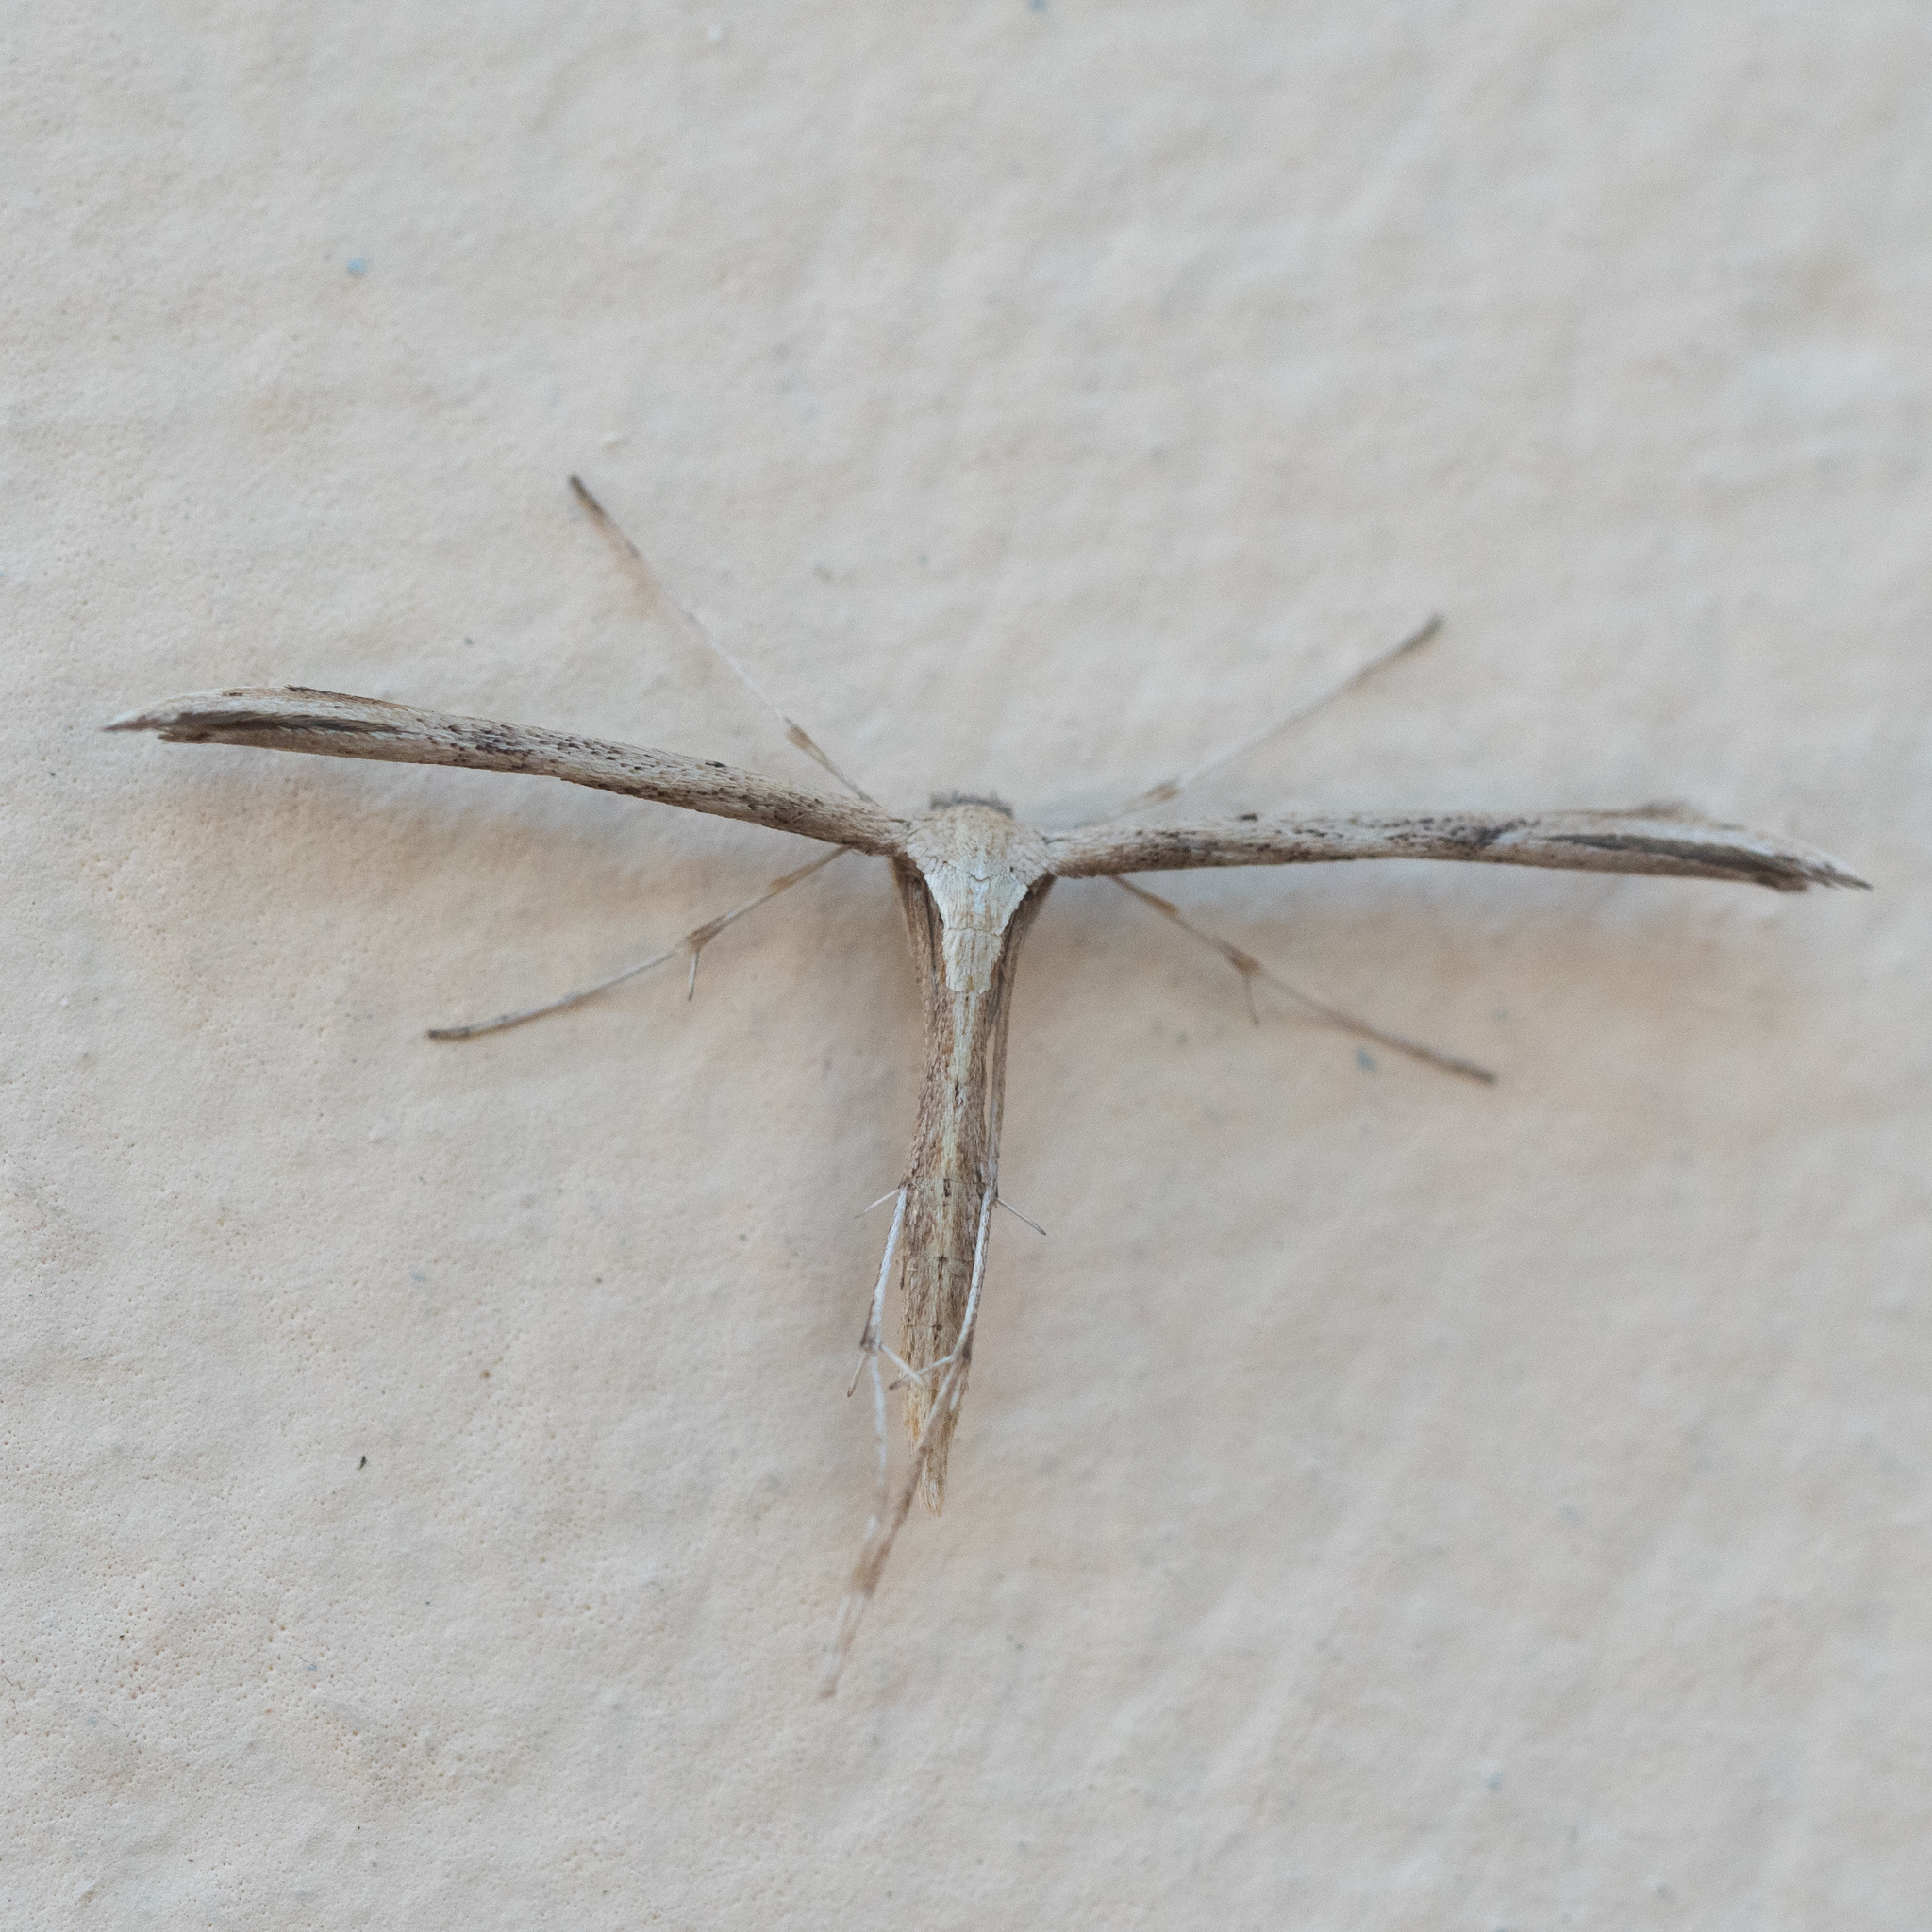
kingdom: Animalia
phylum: Arthropoda
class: Insecta
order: Lepidoptera
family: Pterophoridae
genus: Emmelina
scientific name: Emmelina monodactyla
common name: Common plume
